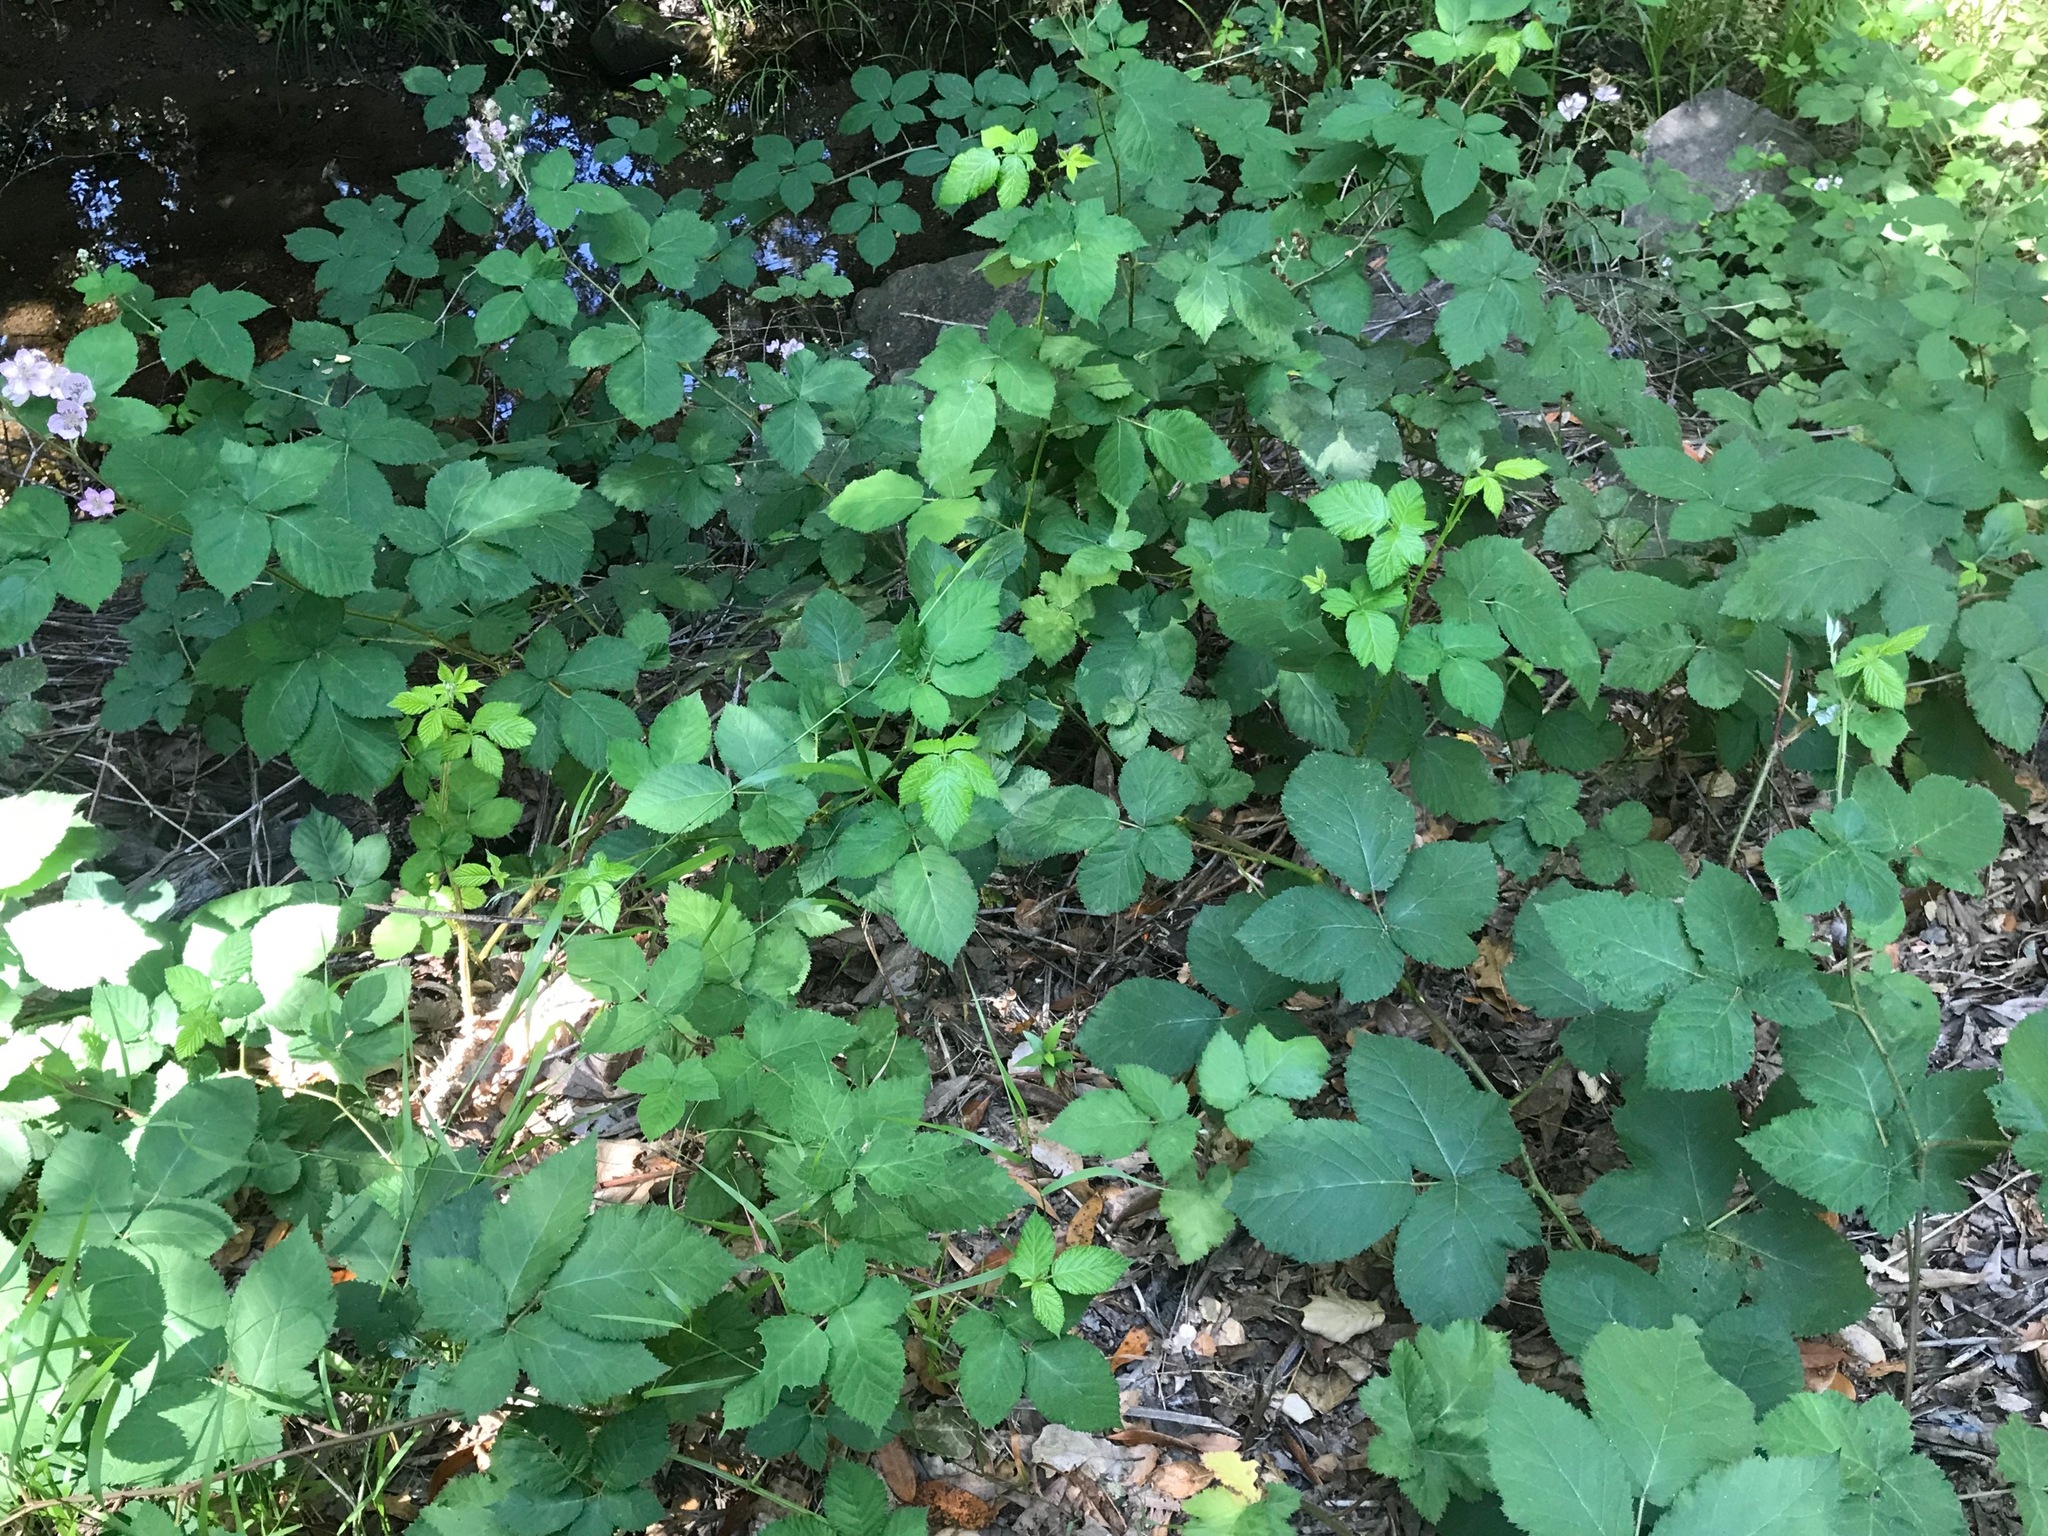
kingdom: Plantae
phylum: Tracheophyta
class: Magnoliopsida
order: Rosales
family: Rosaceae
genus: Rubus
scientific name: Rubus armeniacus
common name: Himalayan blackberry
